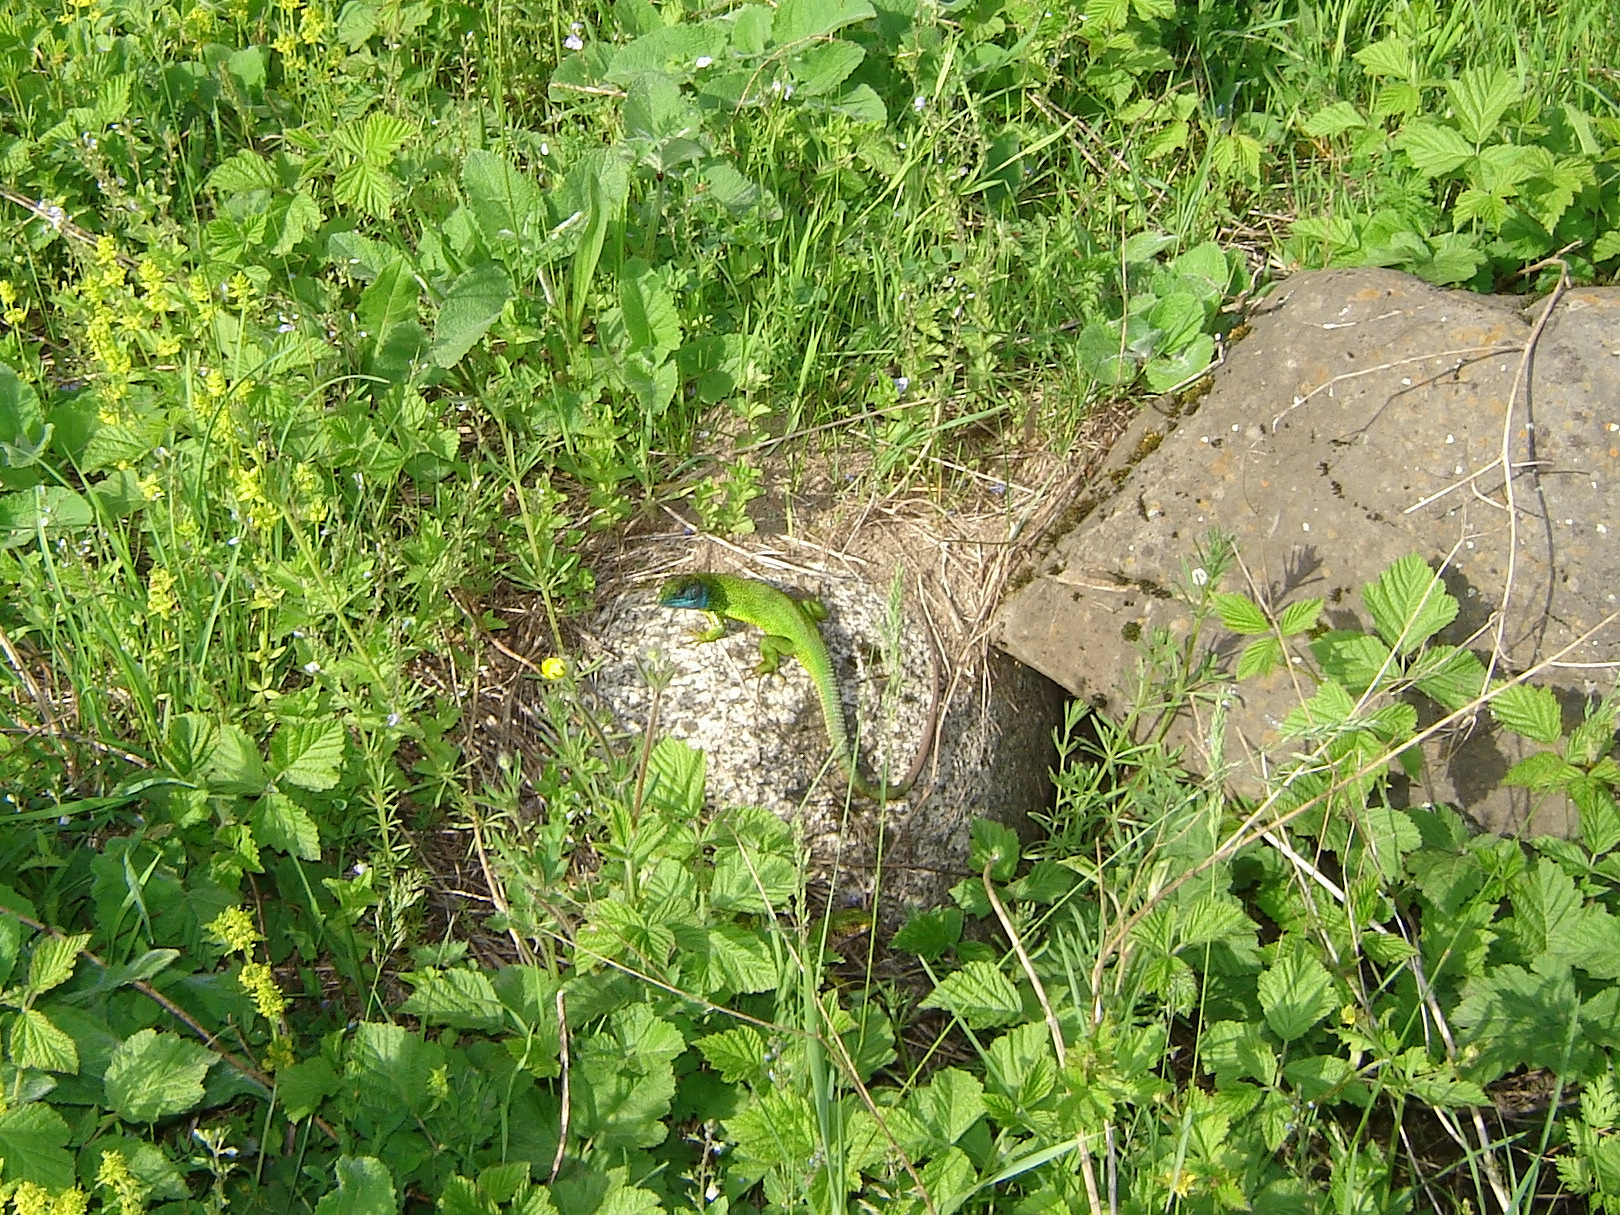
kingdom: Animalia
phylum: Chordata
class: Squamata
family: Lacertidae
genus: Lacerta
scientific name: Lacerta viridis
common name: European green lizard
